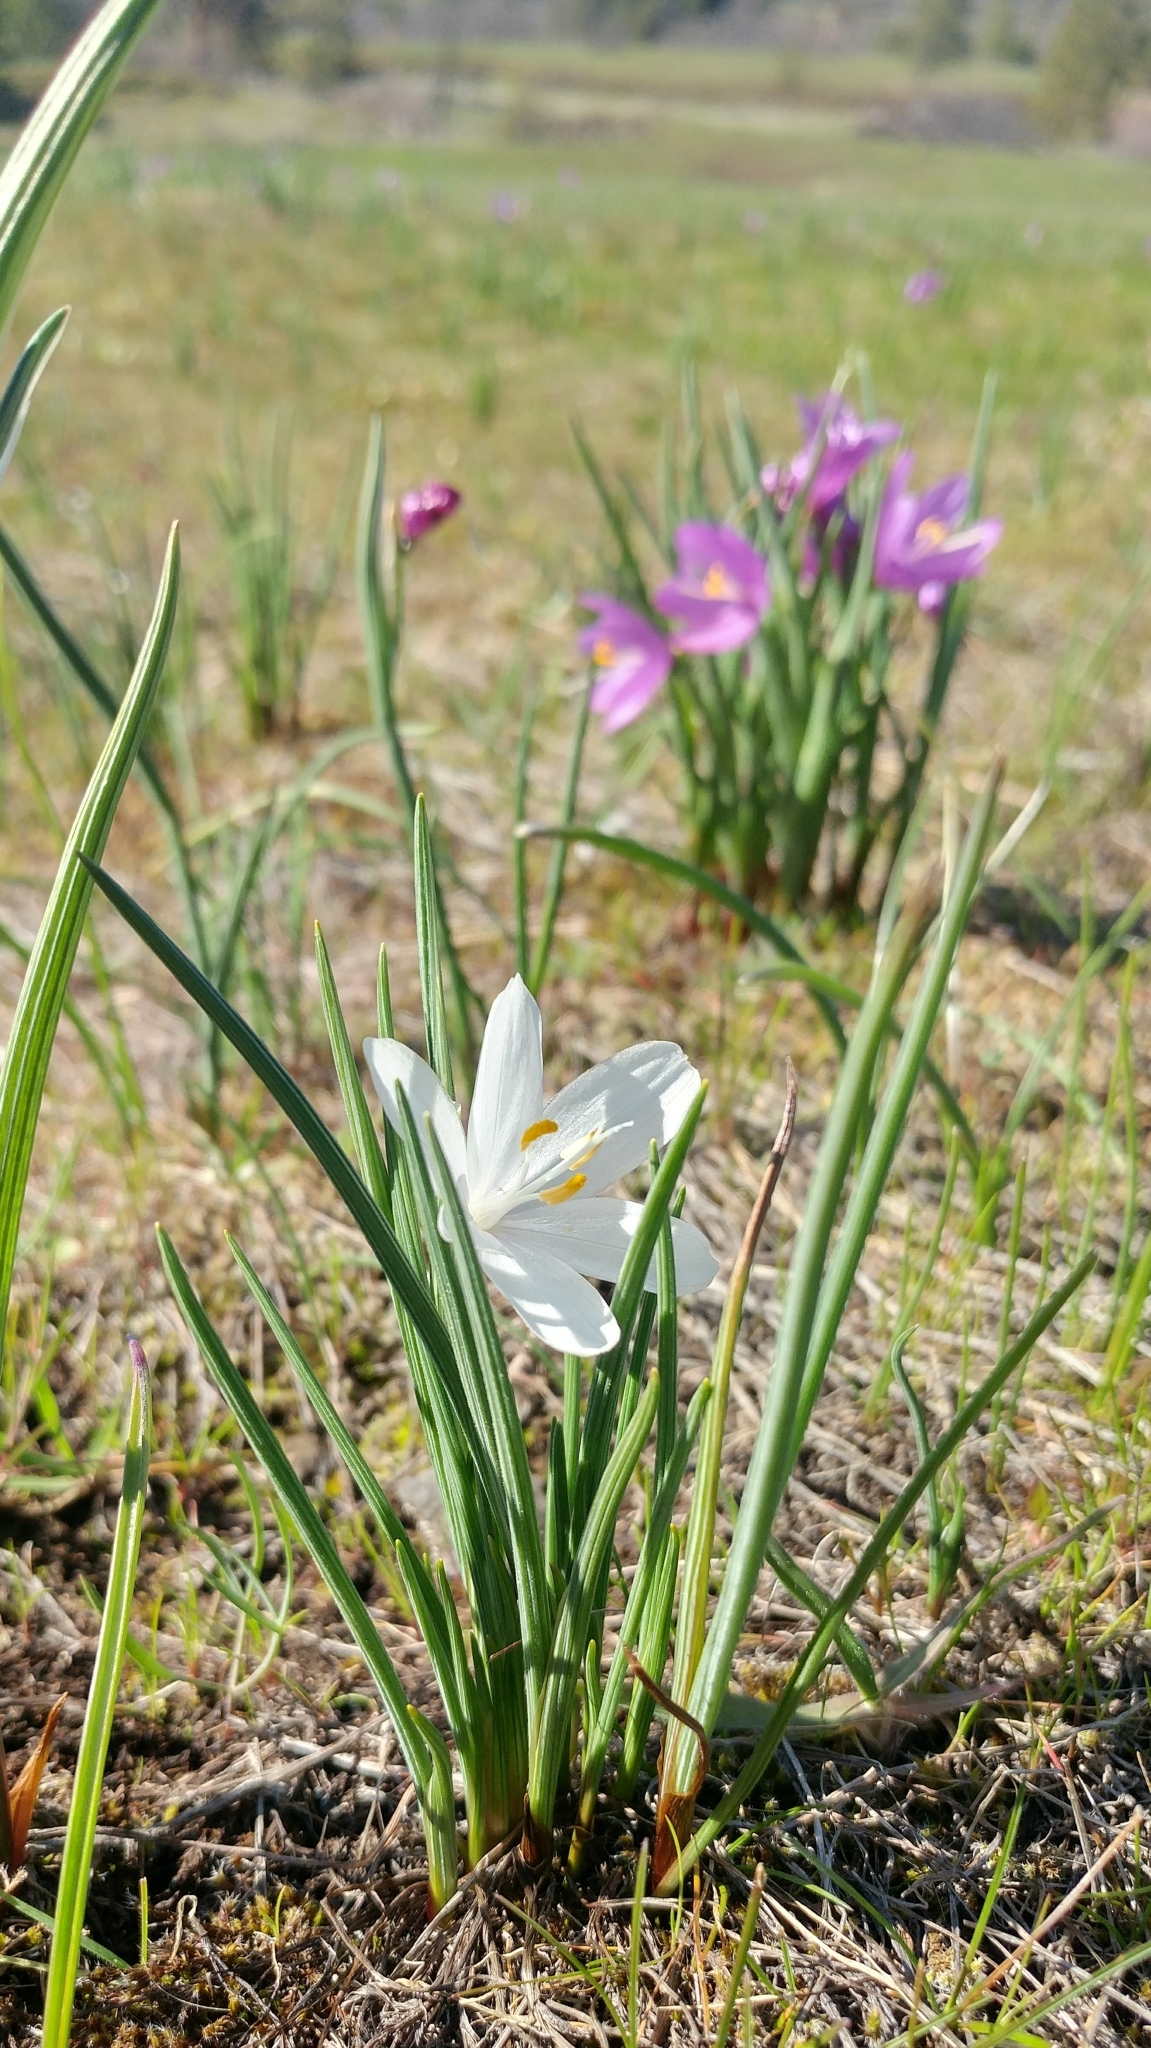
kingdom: Plantae
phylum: Tracheophyta
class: Liliopsida
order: Asparagales
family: Iridaceae
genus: Olsynium
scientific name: Olsynium douglasii
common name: Douglas' grasswidow
